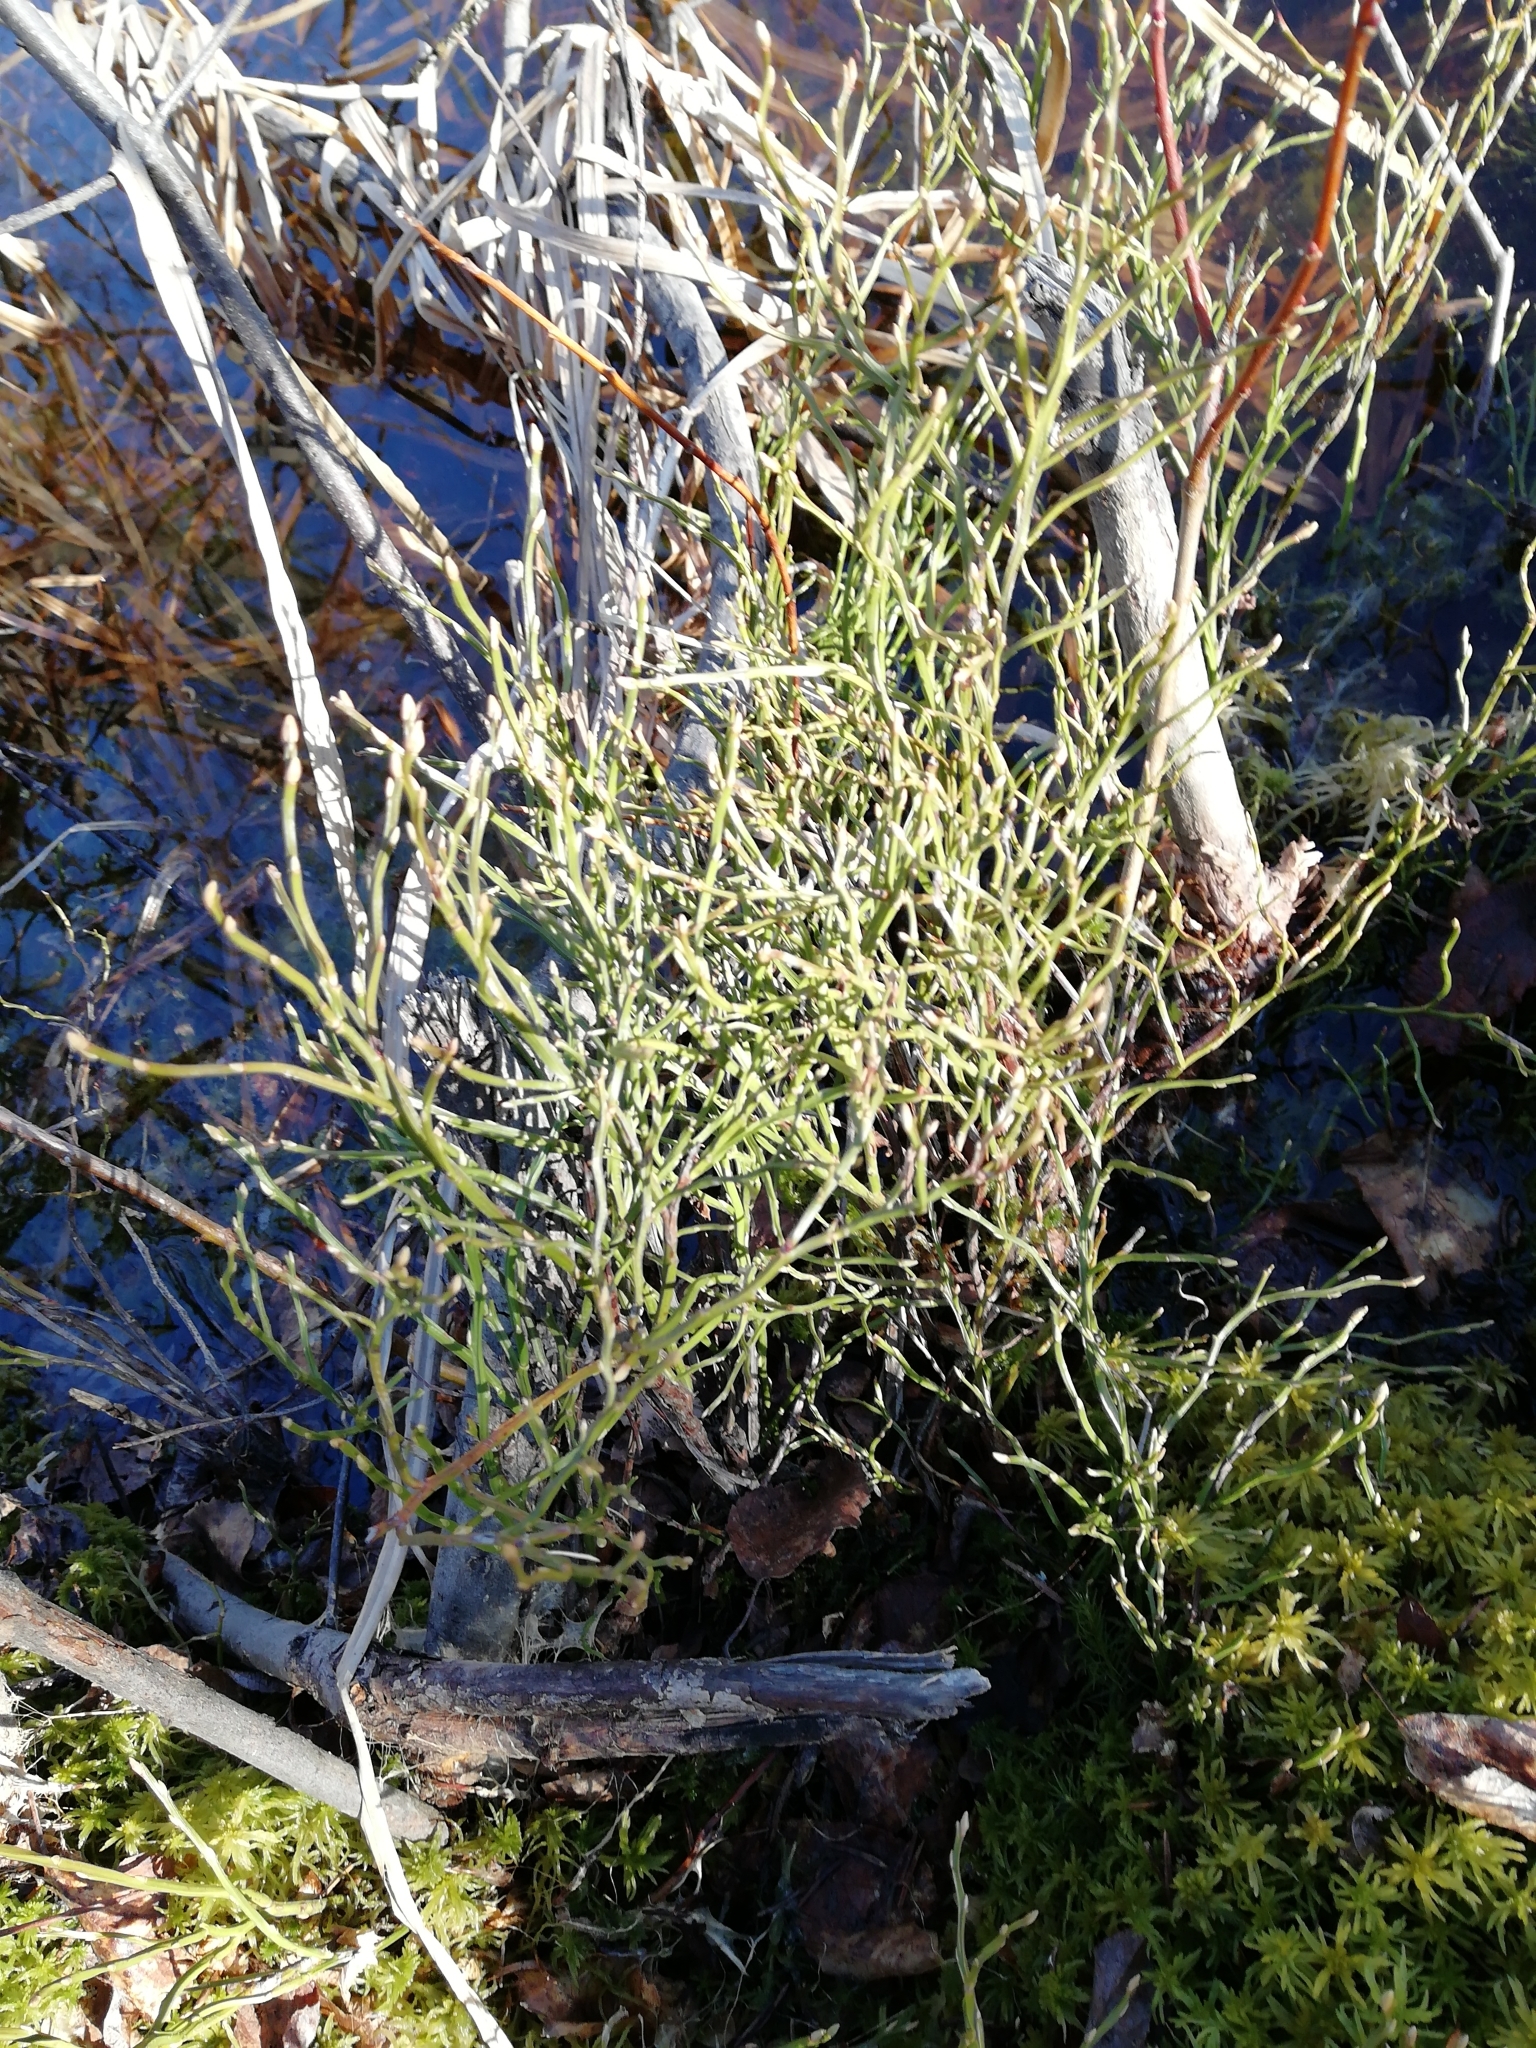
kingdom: Plantae
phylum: Tracheophyta
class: Magnoliopsida
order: Ericales
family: Ericaceae
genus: Vaccinium
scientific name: Vaccinium myrtillus
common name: Bilberry
